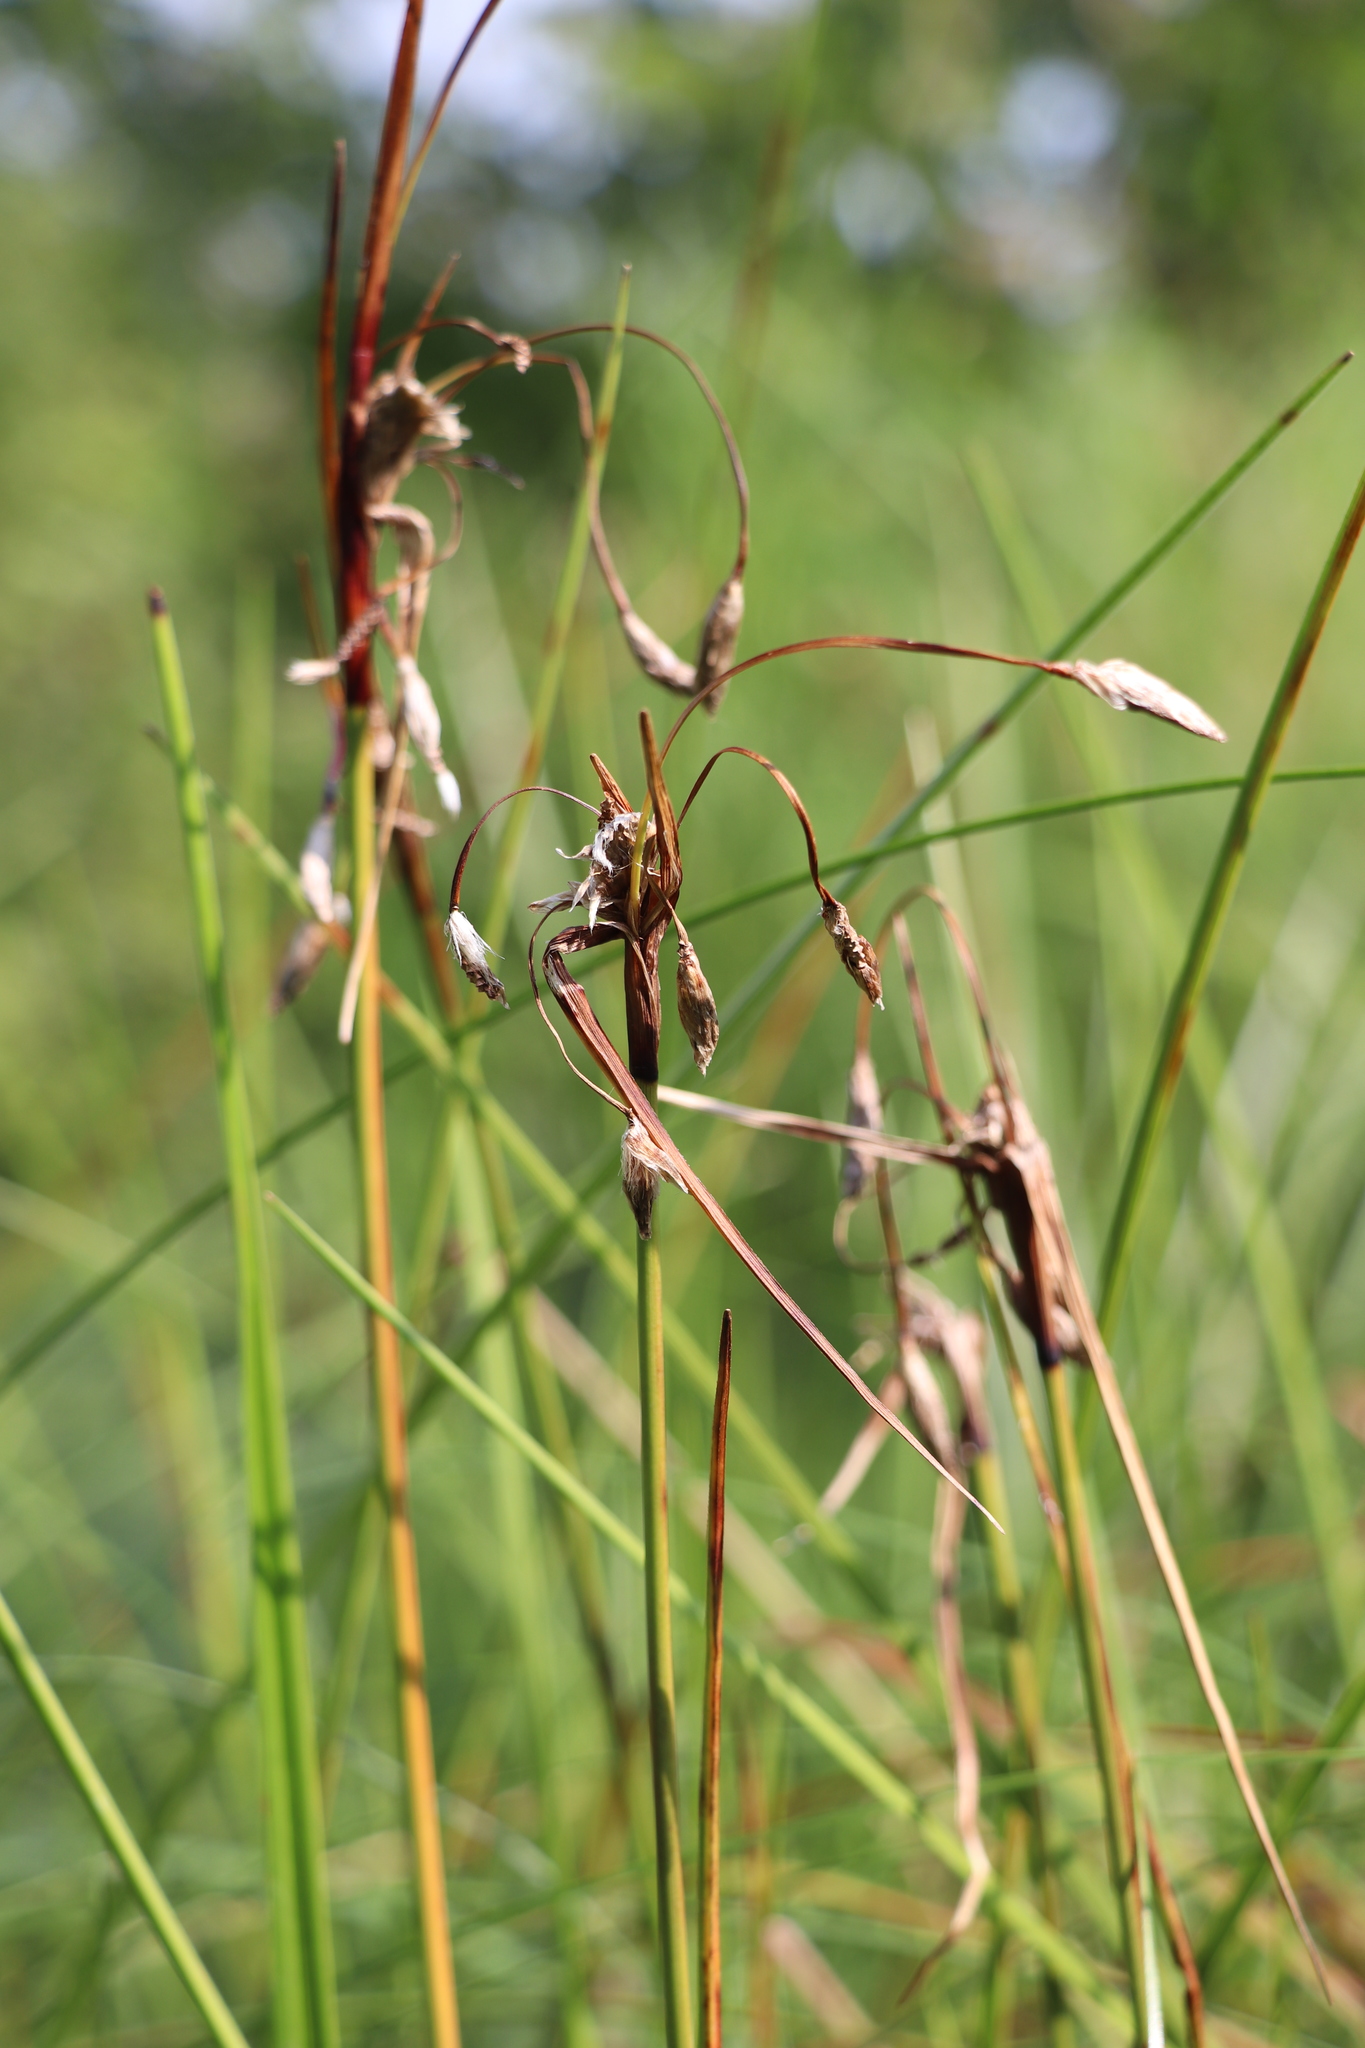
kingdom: Plantae
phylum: Tracheophyta
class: Liliopsida
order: Poales
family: Cyperaceae
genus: Eriophorum
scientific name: Eriophorum angustifolium
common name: Common cottongrass
